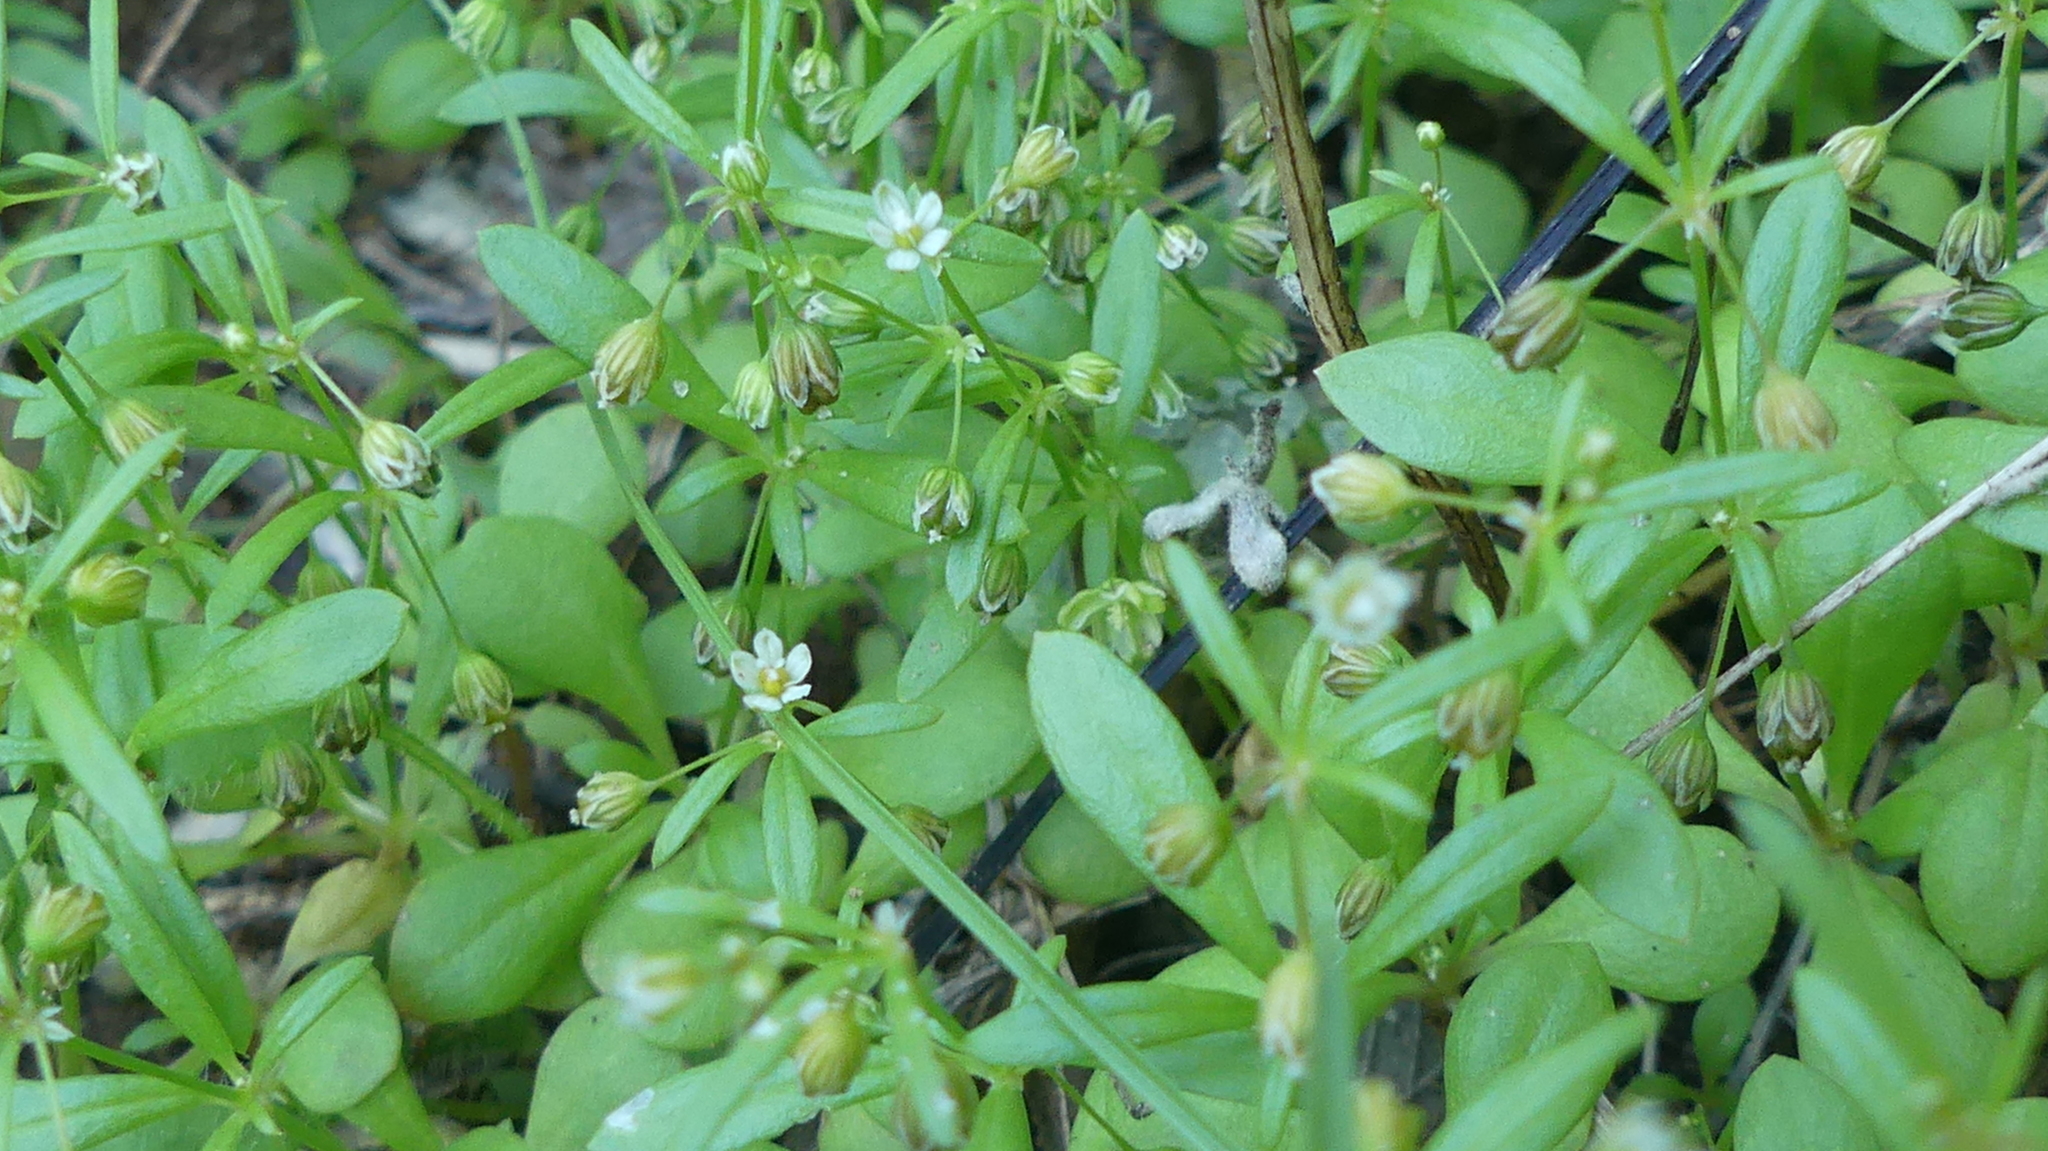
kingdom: Plantae
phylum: Tracheophyta
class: Magnoliopsida
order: Caryophyllales
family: Molluginaceae
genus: Mollugo
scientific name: Mollugo verticillata
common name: Green carpetweed
